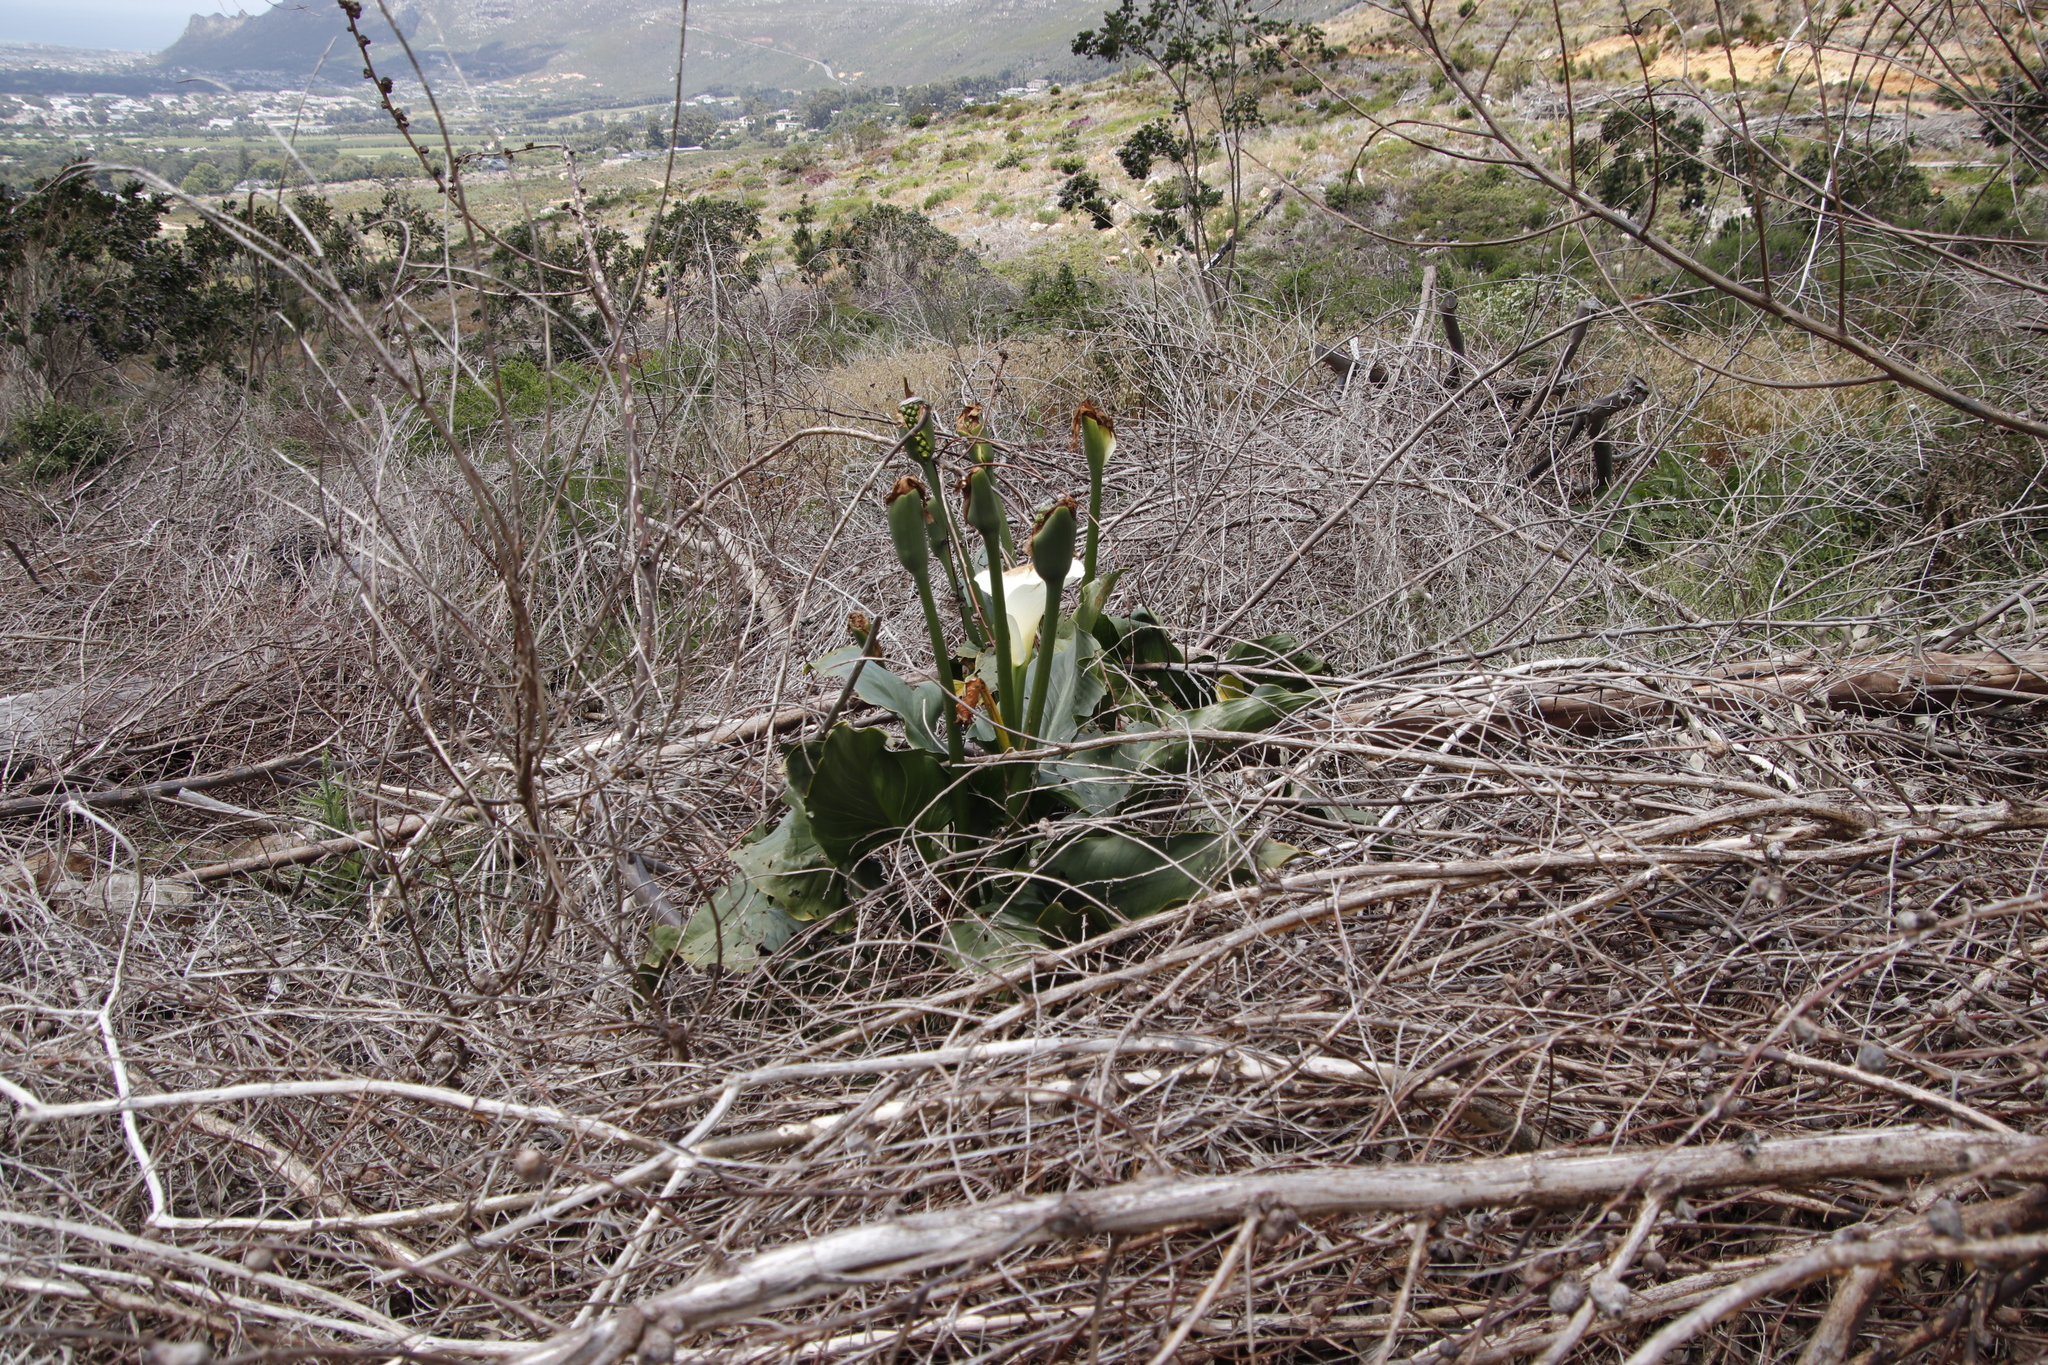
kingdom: Plantae
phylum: Tracheophyta
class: Liliopsida
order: Alismatales
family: Araceae
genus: Zantedeschia
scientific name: Zantedeschia aethiopica
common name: Altar-lily
